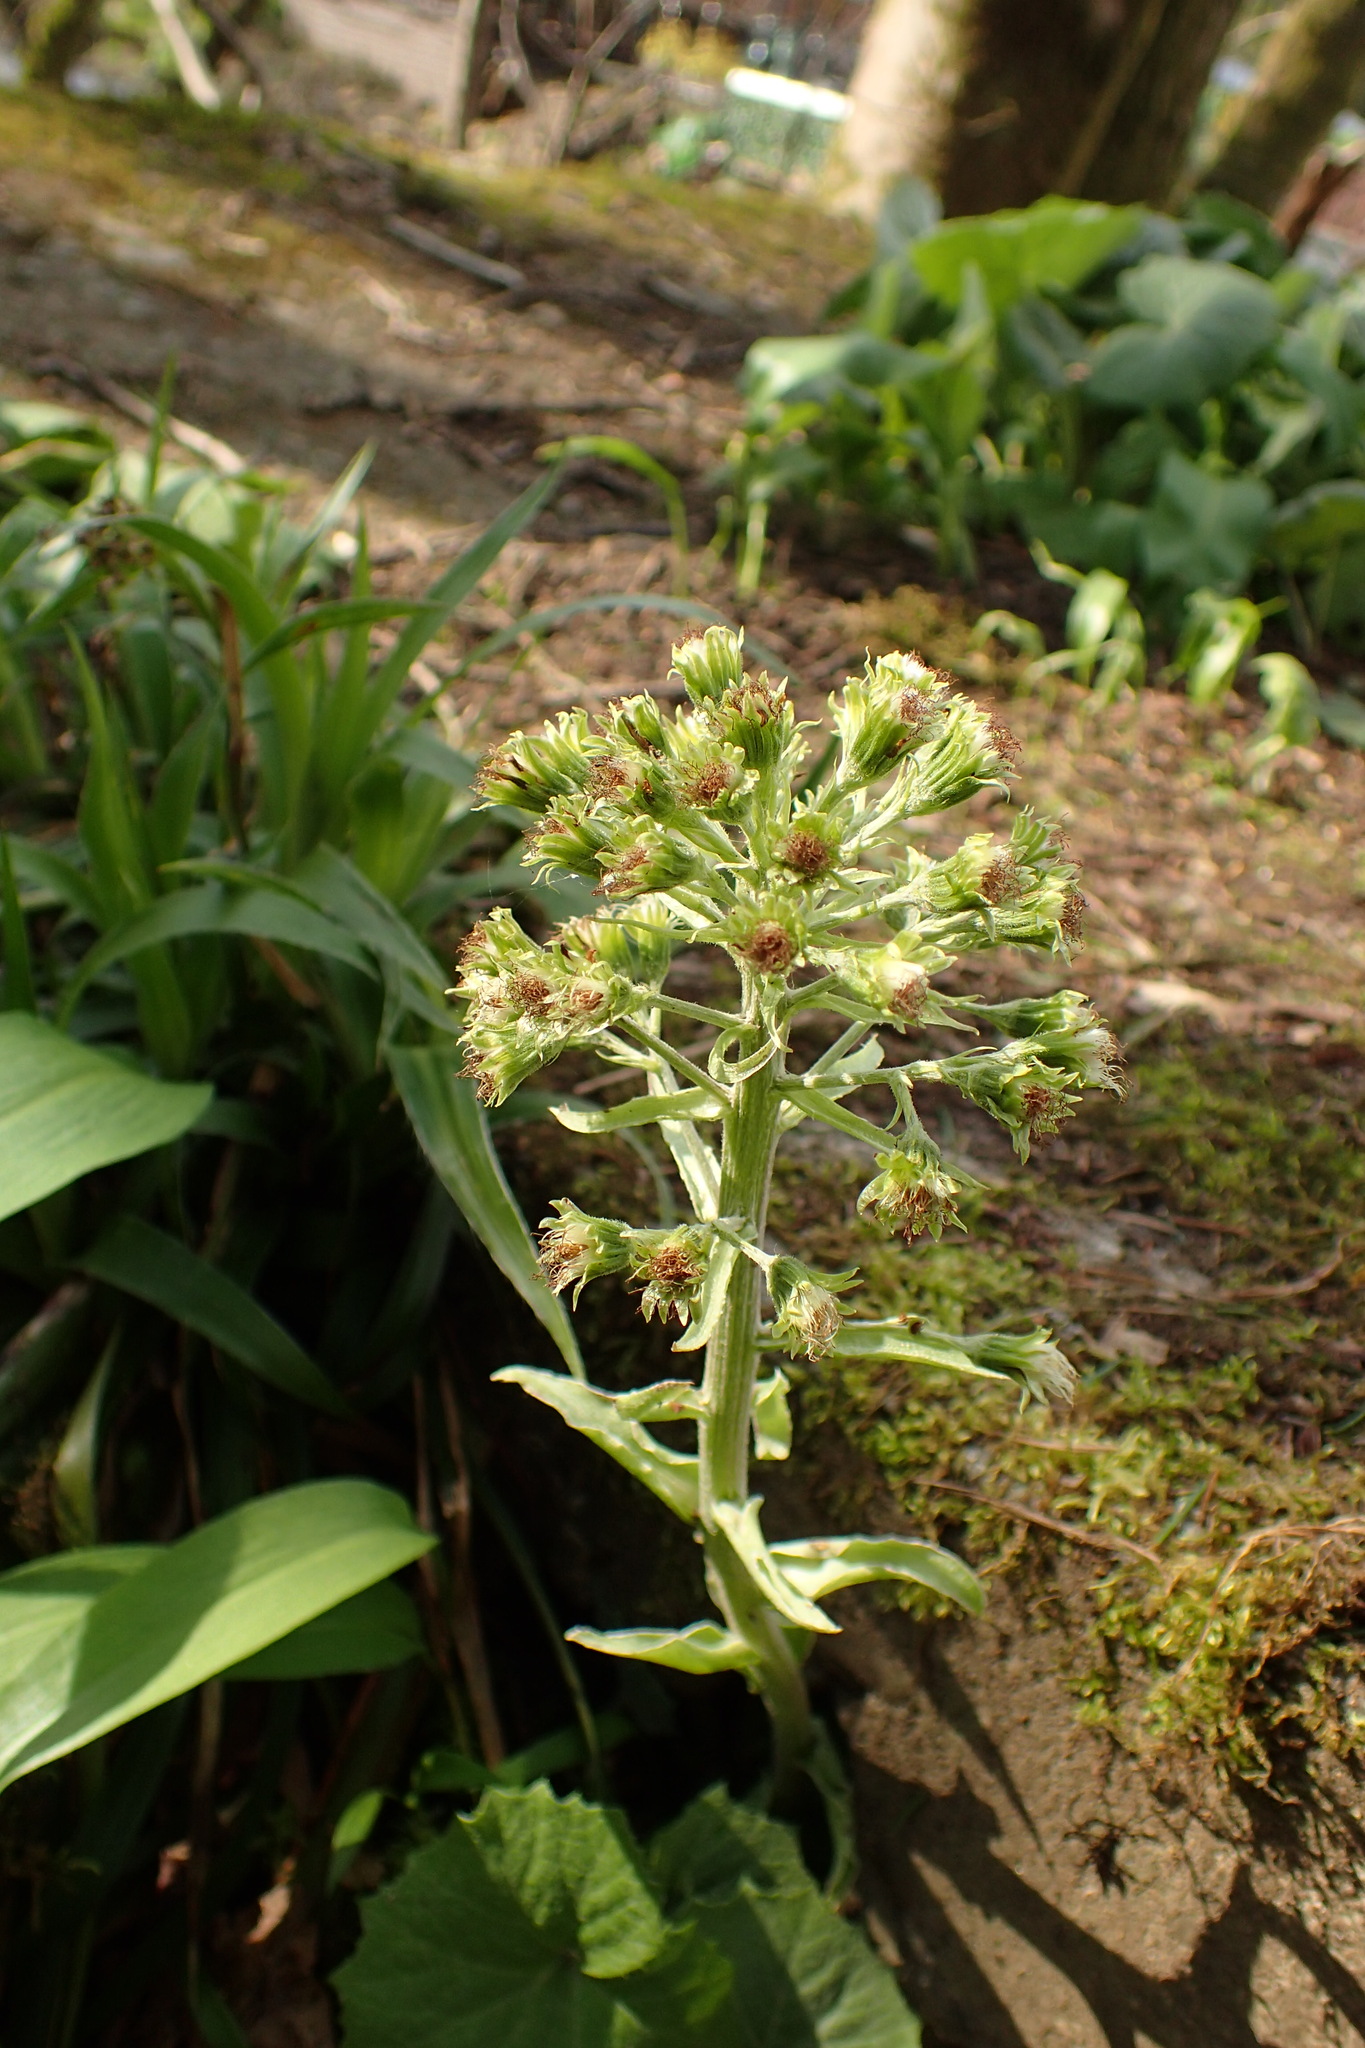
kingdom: Plantae
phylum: Tracheophyta
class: Magnoliopsida
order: Asterales
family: Asteraceae
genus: Petasites
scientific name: Petasites albus
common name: White butterbur
